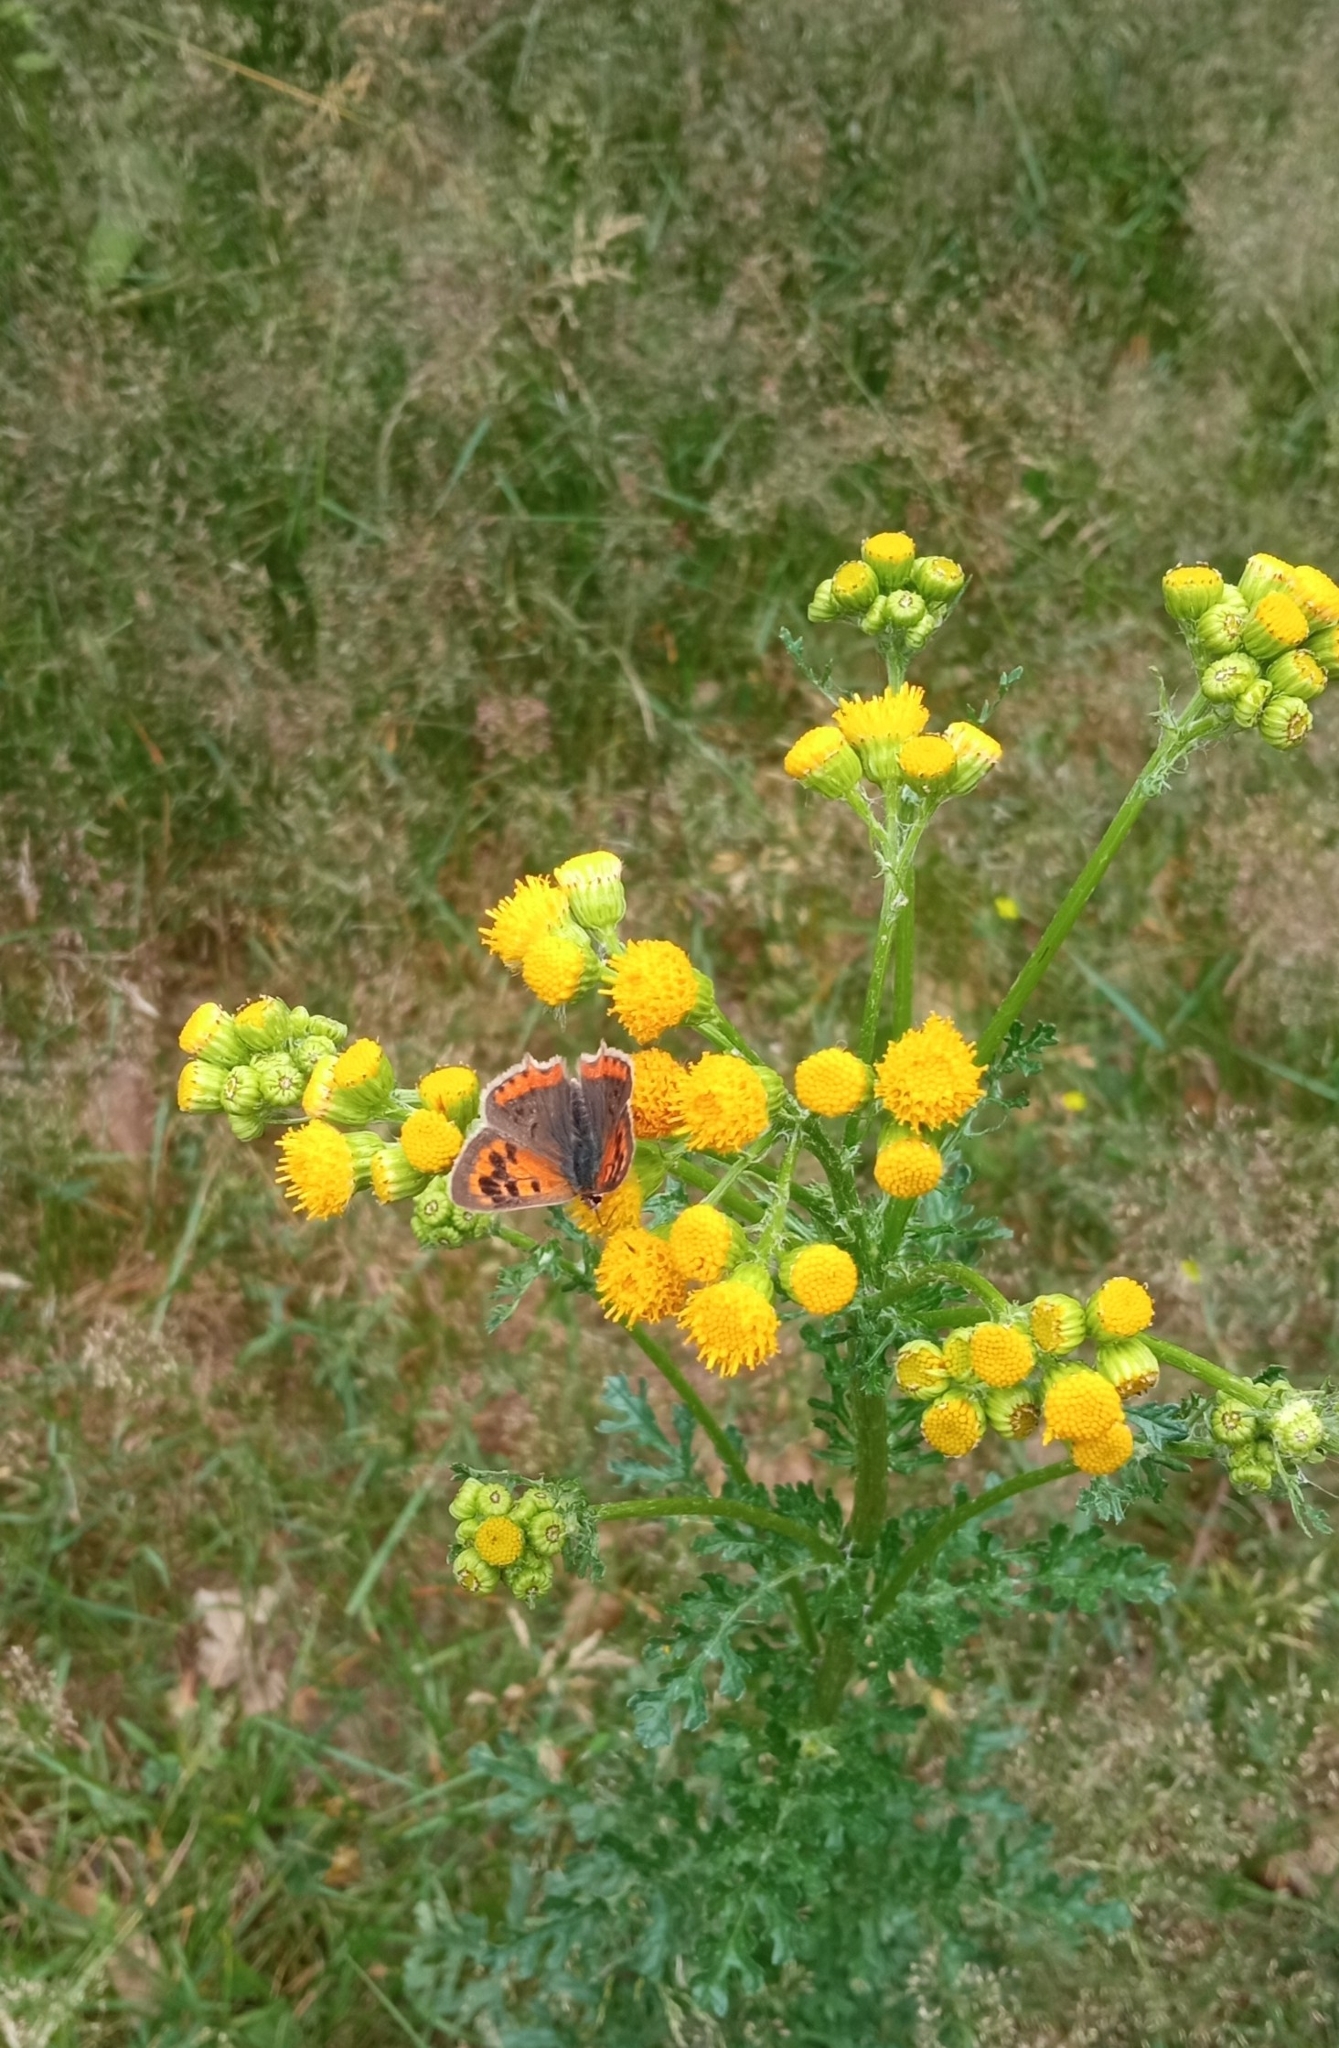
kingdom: Animalia
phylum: Arthropoda
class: Insecta
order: Lepidoptera
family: Lycaenidae
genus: Lycaena
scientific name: Lycaena phlaeas
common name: Small copper
